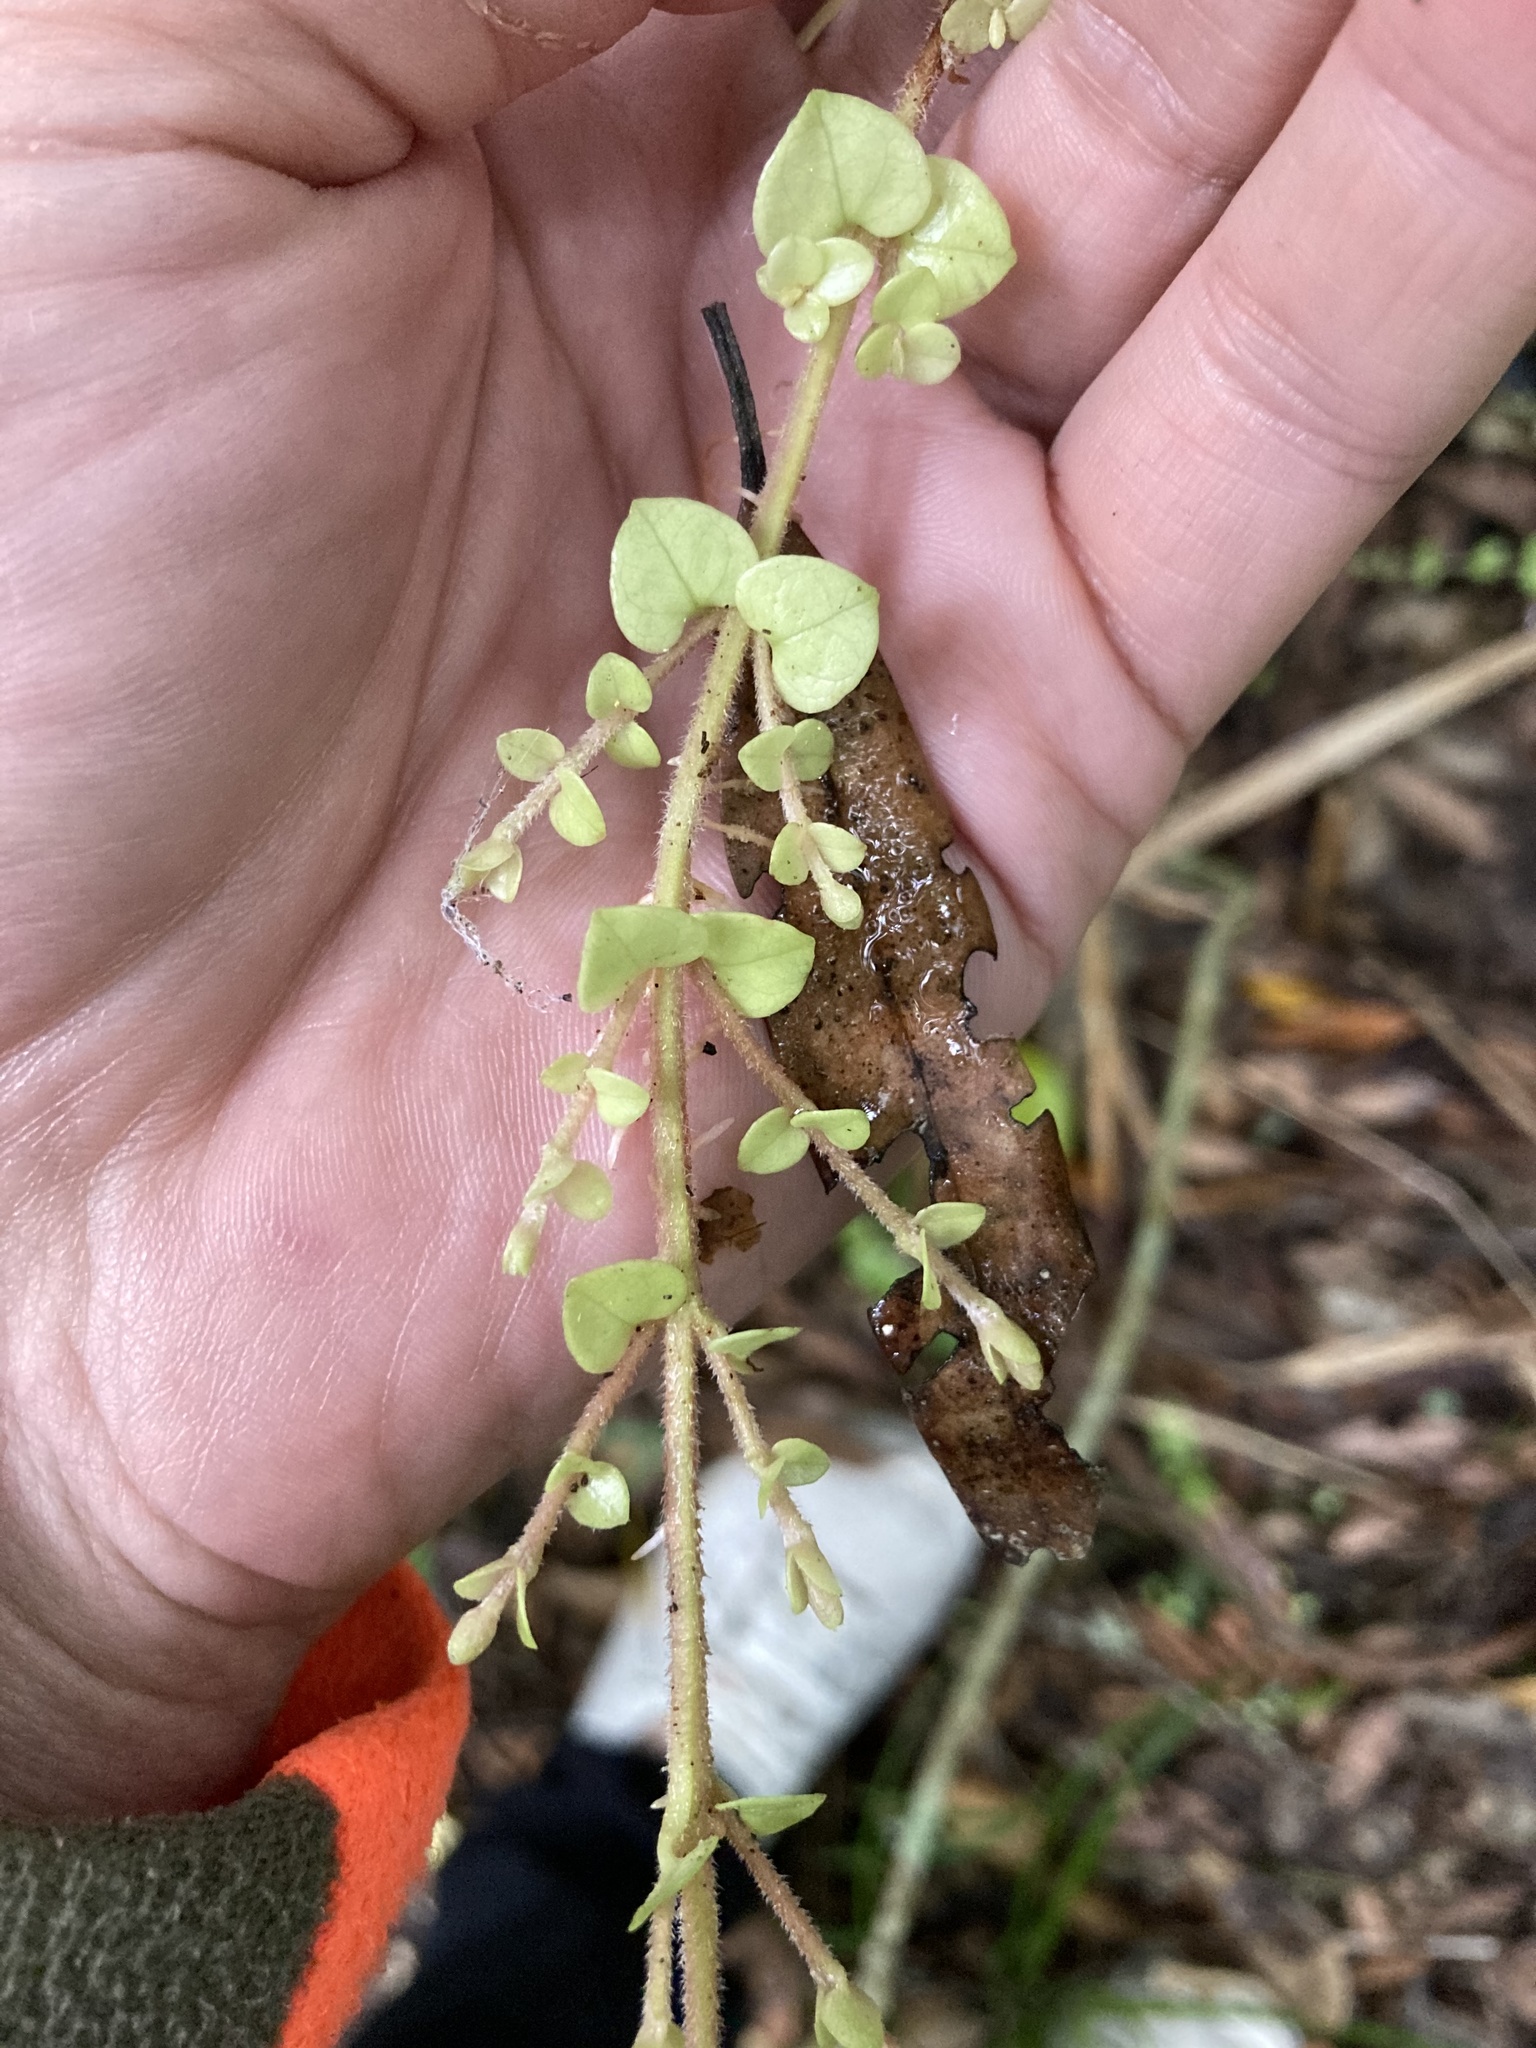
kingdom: Plantae
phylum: Tracheophyta
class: Magnoliopsida
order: Myrtales
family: Myrtaceae
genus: Metrosideros
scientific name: Metrosideros perforata
